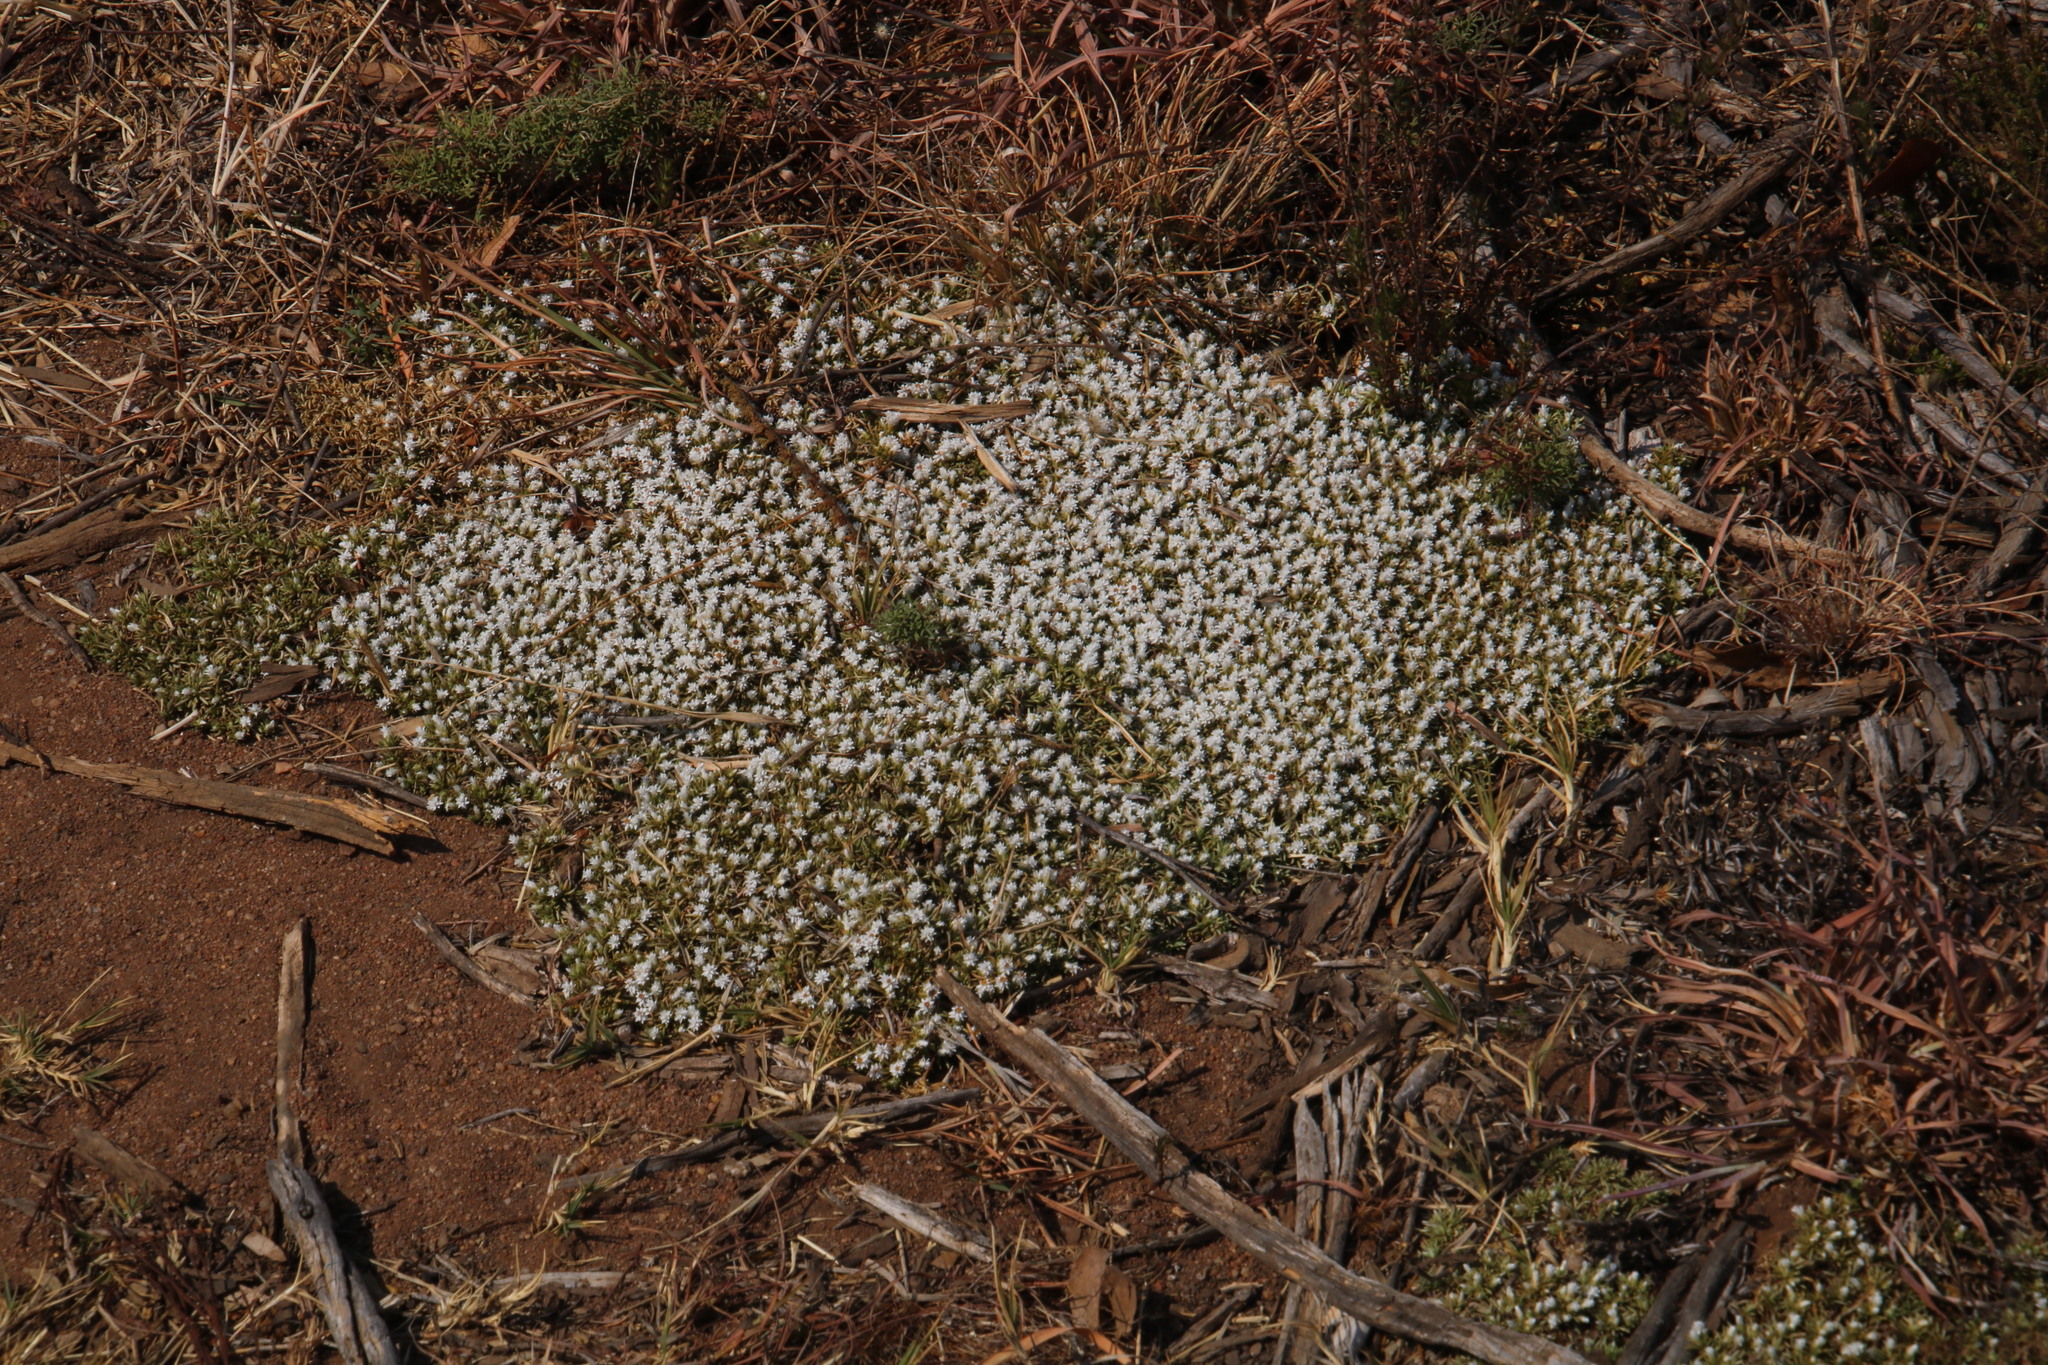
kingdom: Plantae
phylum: Tracheophyta
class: Magnoliopsida
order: Asterales
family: Asteraceae
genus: Helichrysum
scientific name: Helichrysum caespititium
